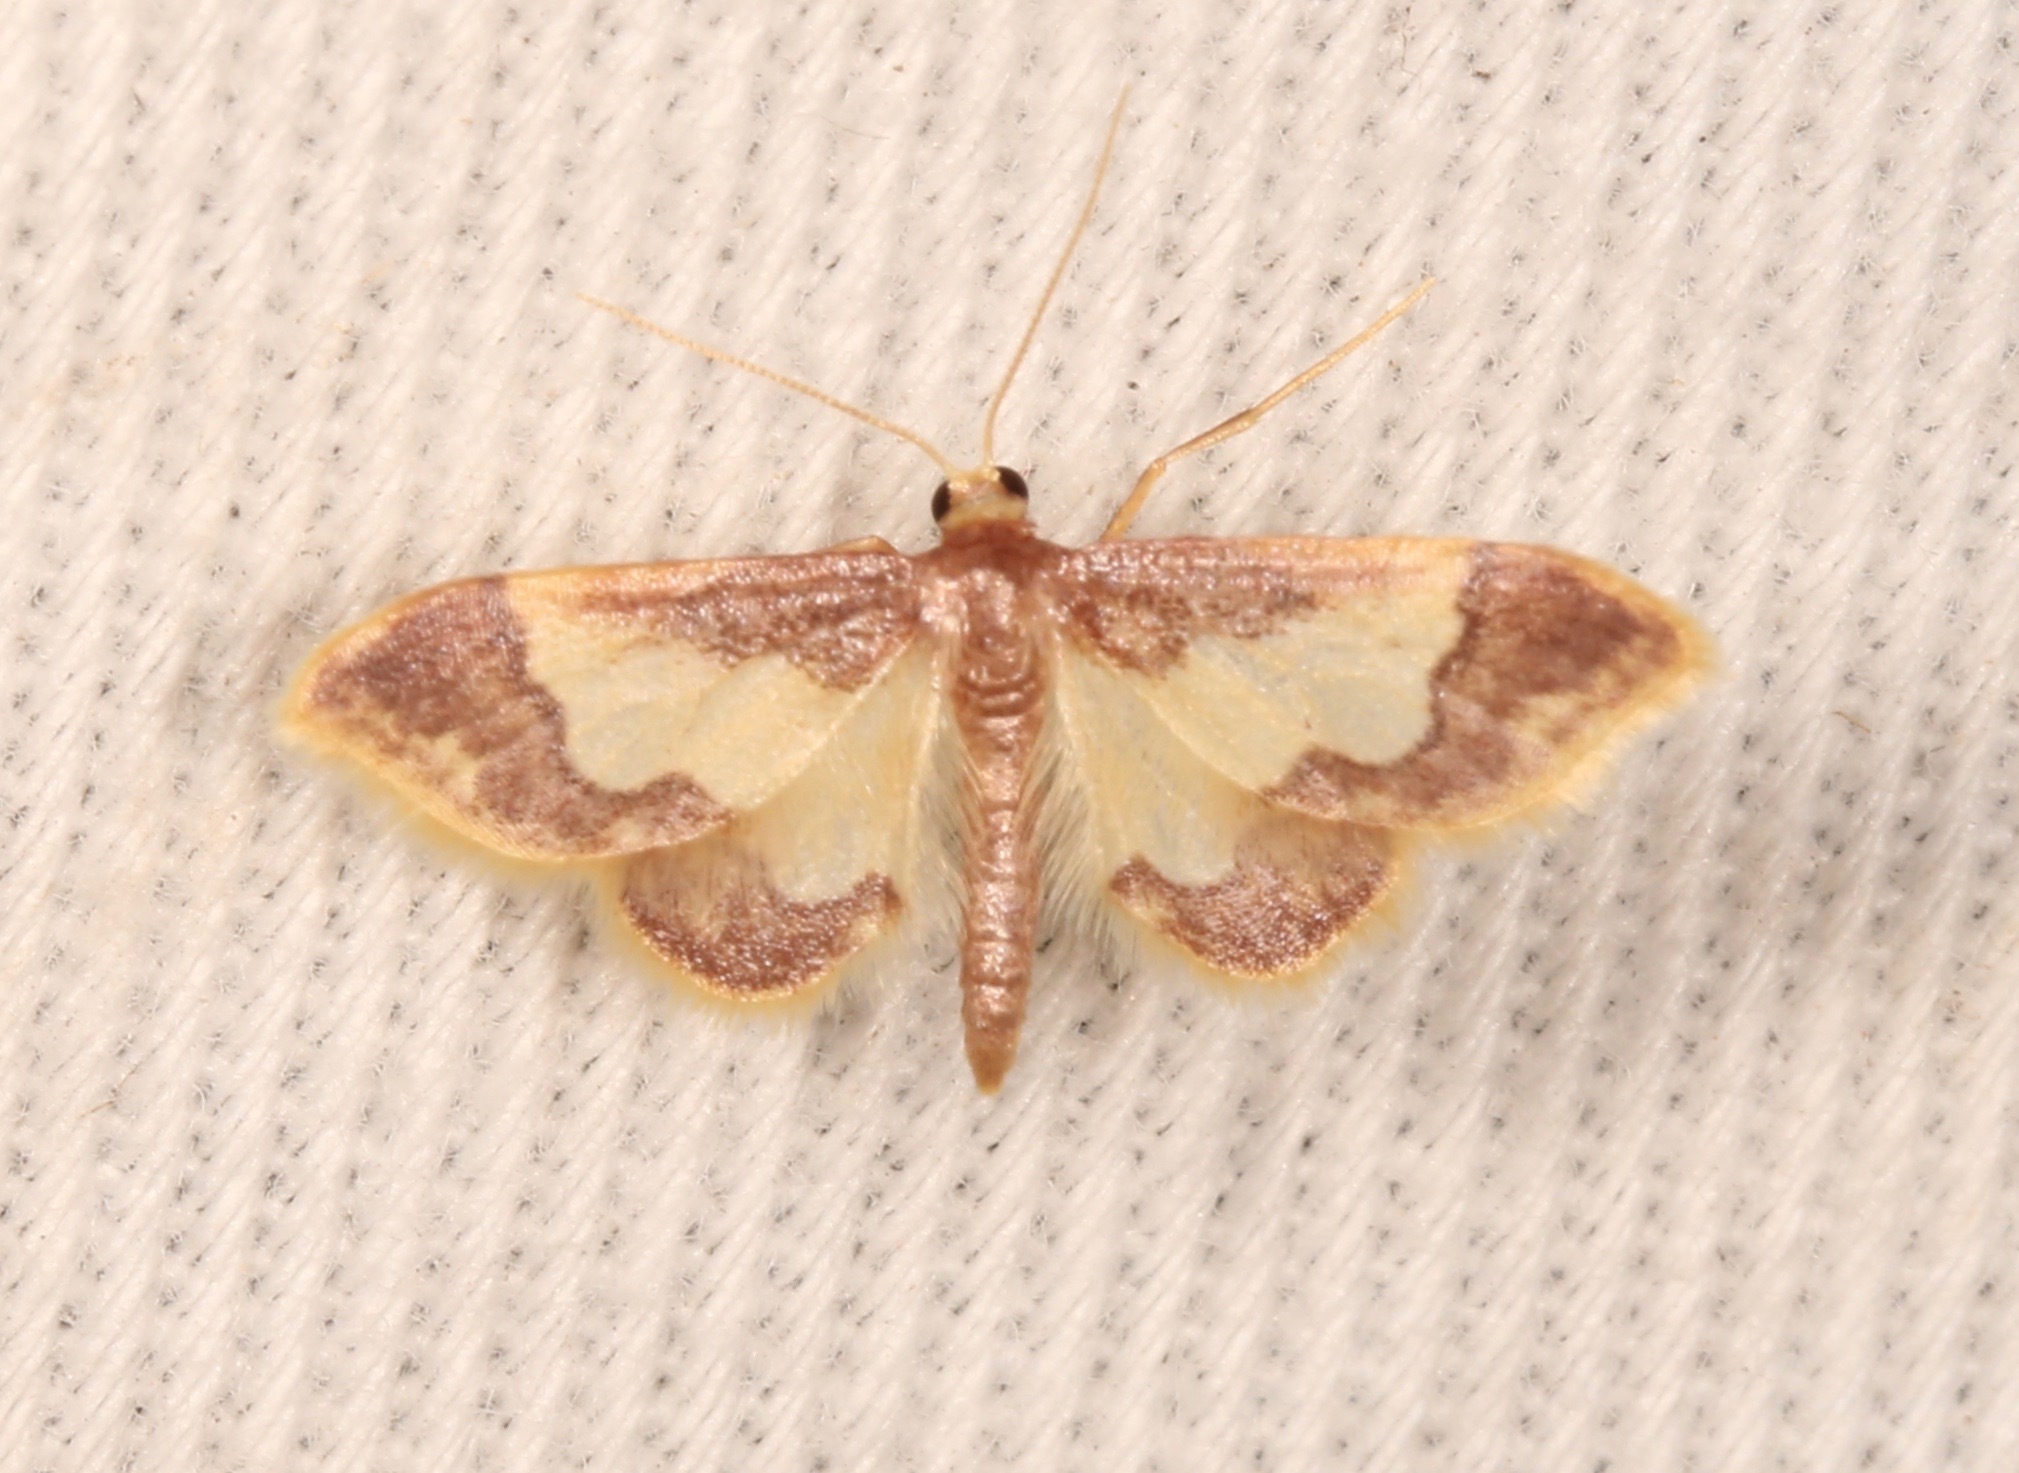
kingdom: Animalia
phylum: Arthropoda
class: Insecta
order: Lepidoptera
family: Geometridae
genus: Idaea
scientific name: Idaea basinta
